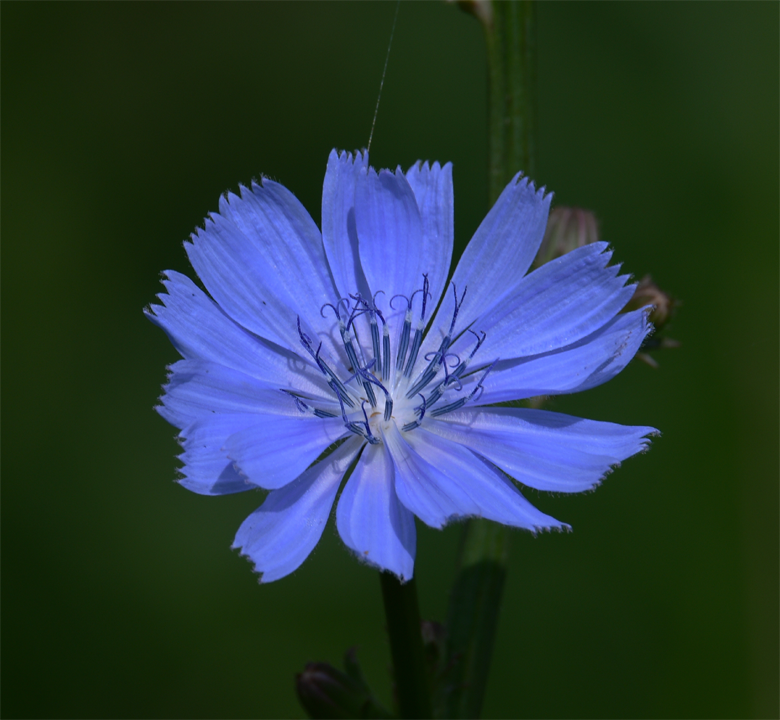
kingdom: Plantae
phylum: Tracheophyta
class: Magnoliopsida
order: Asterales
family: Asteraceae
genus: Cichorium
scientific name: Cichorium intybus
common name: Chicory
